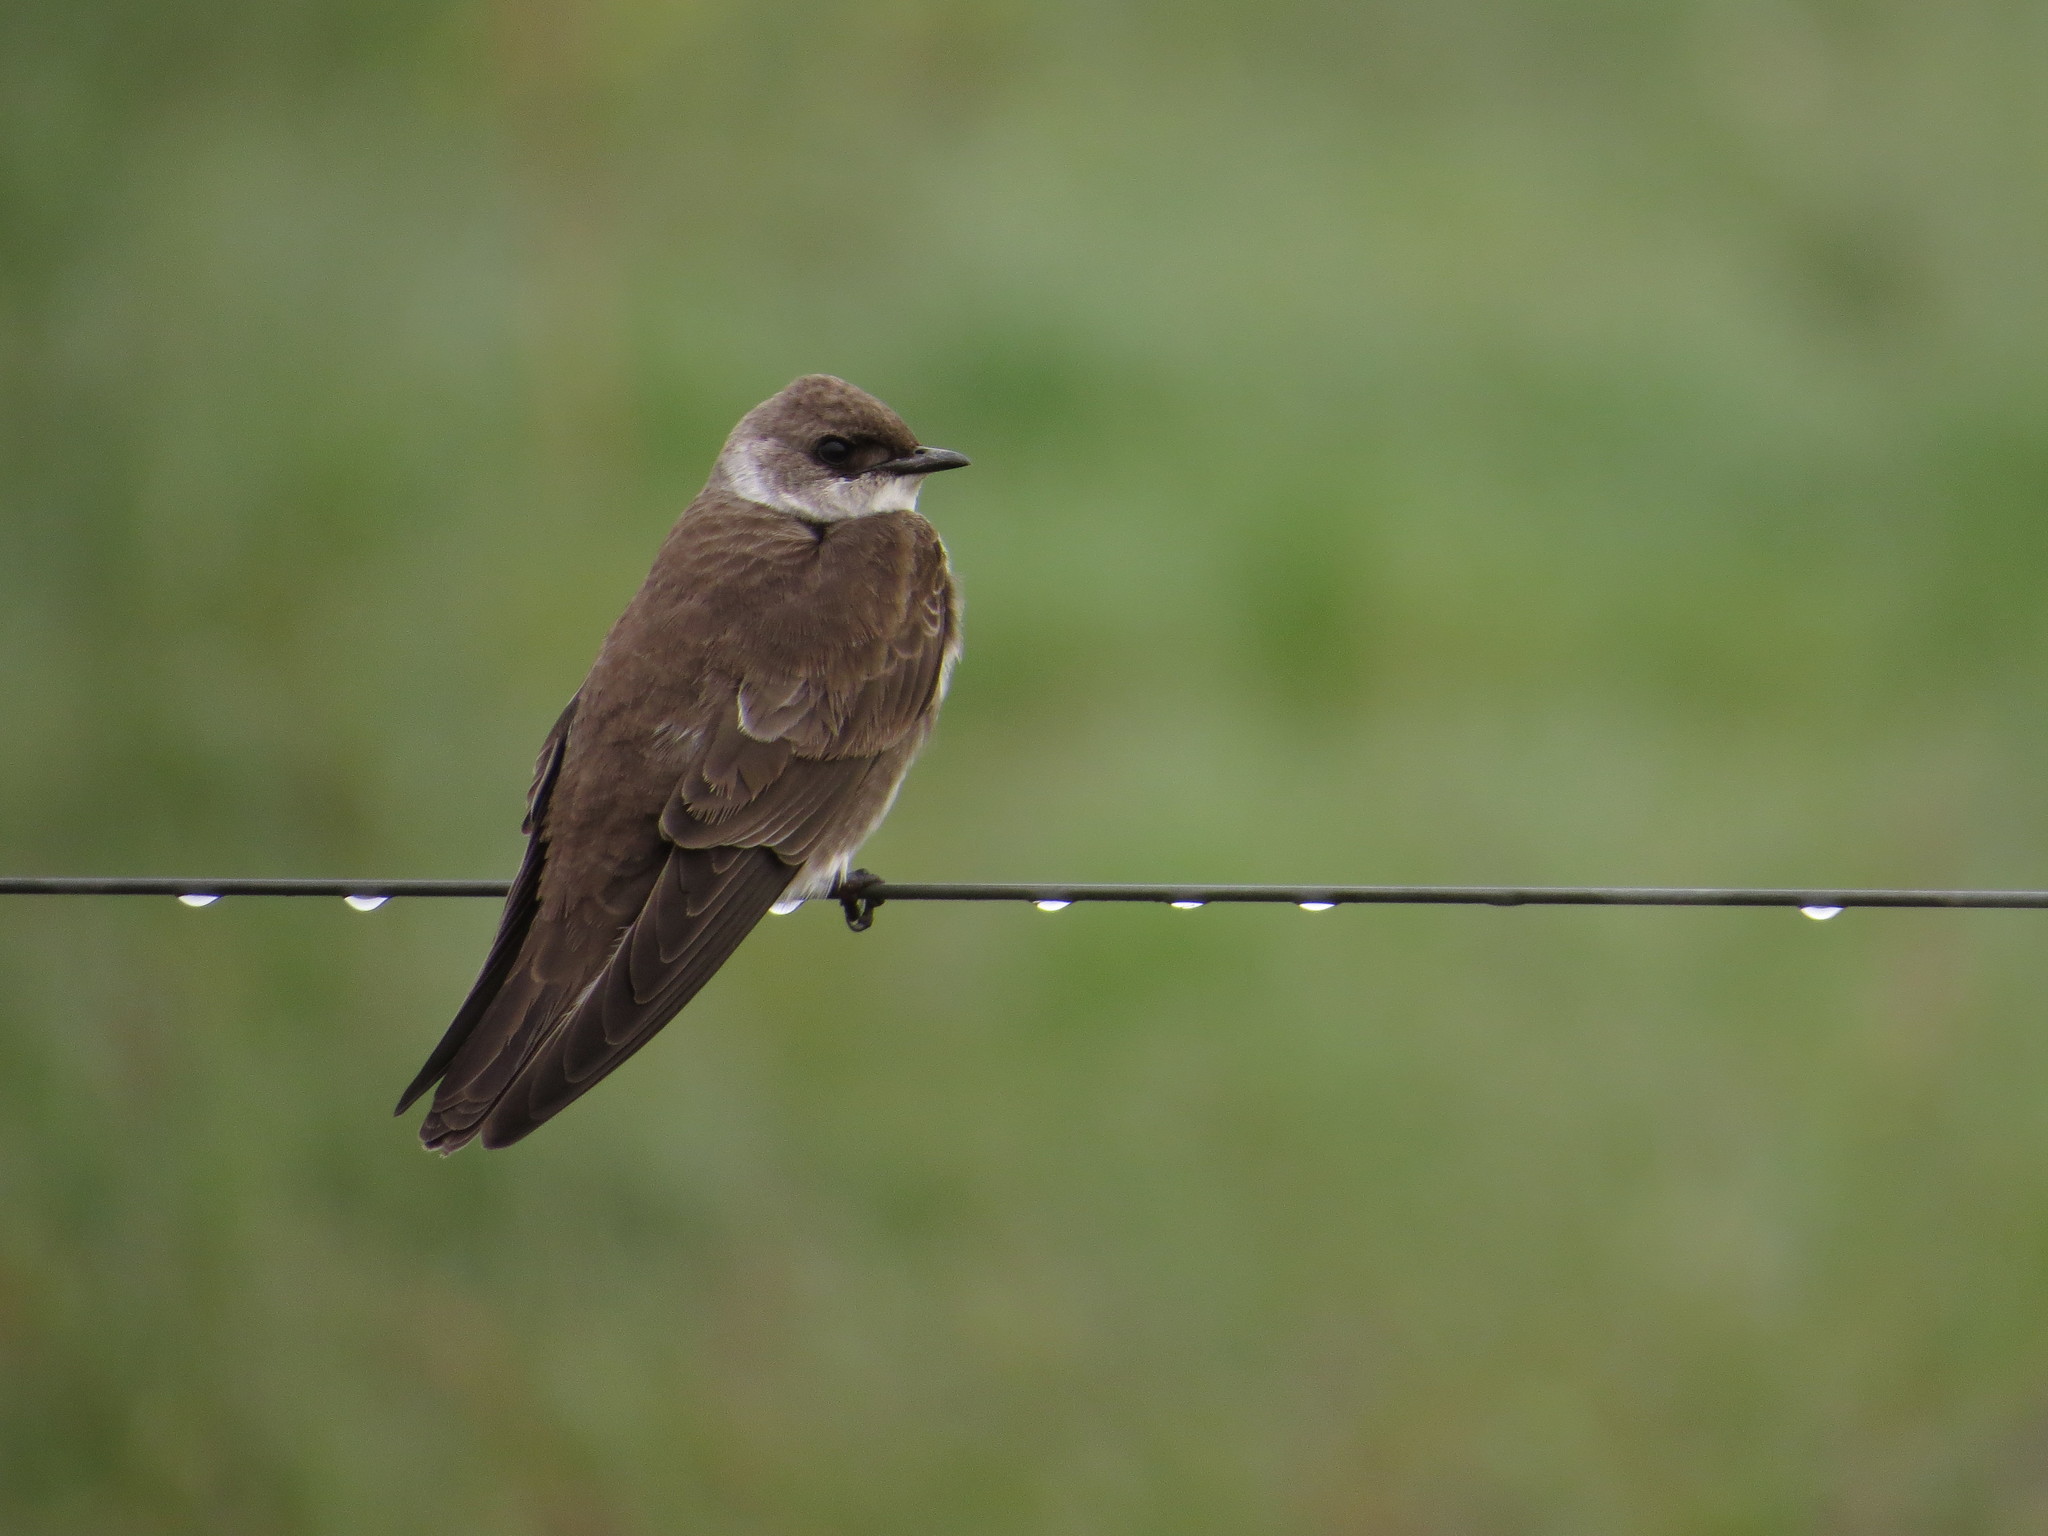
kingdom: Animalia
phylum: Chordata
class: Aves
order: Passeriformes
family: Hirundinidae
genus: Progne
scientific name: Progne tapera
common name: Brown-chested martin
